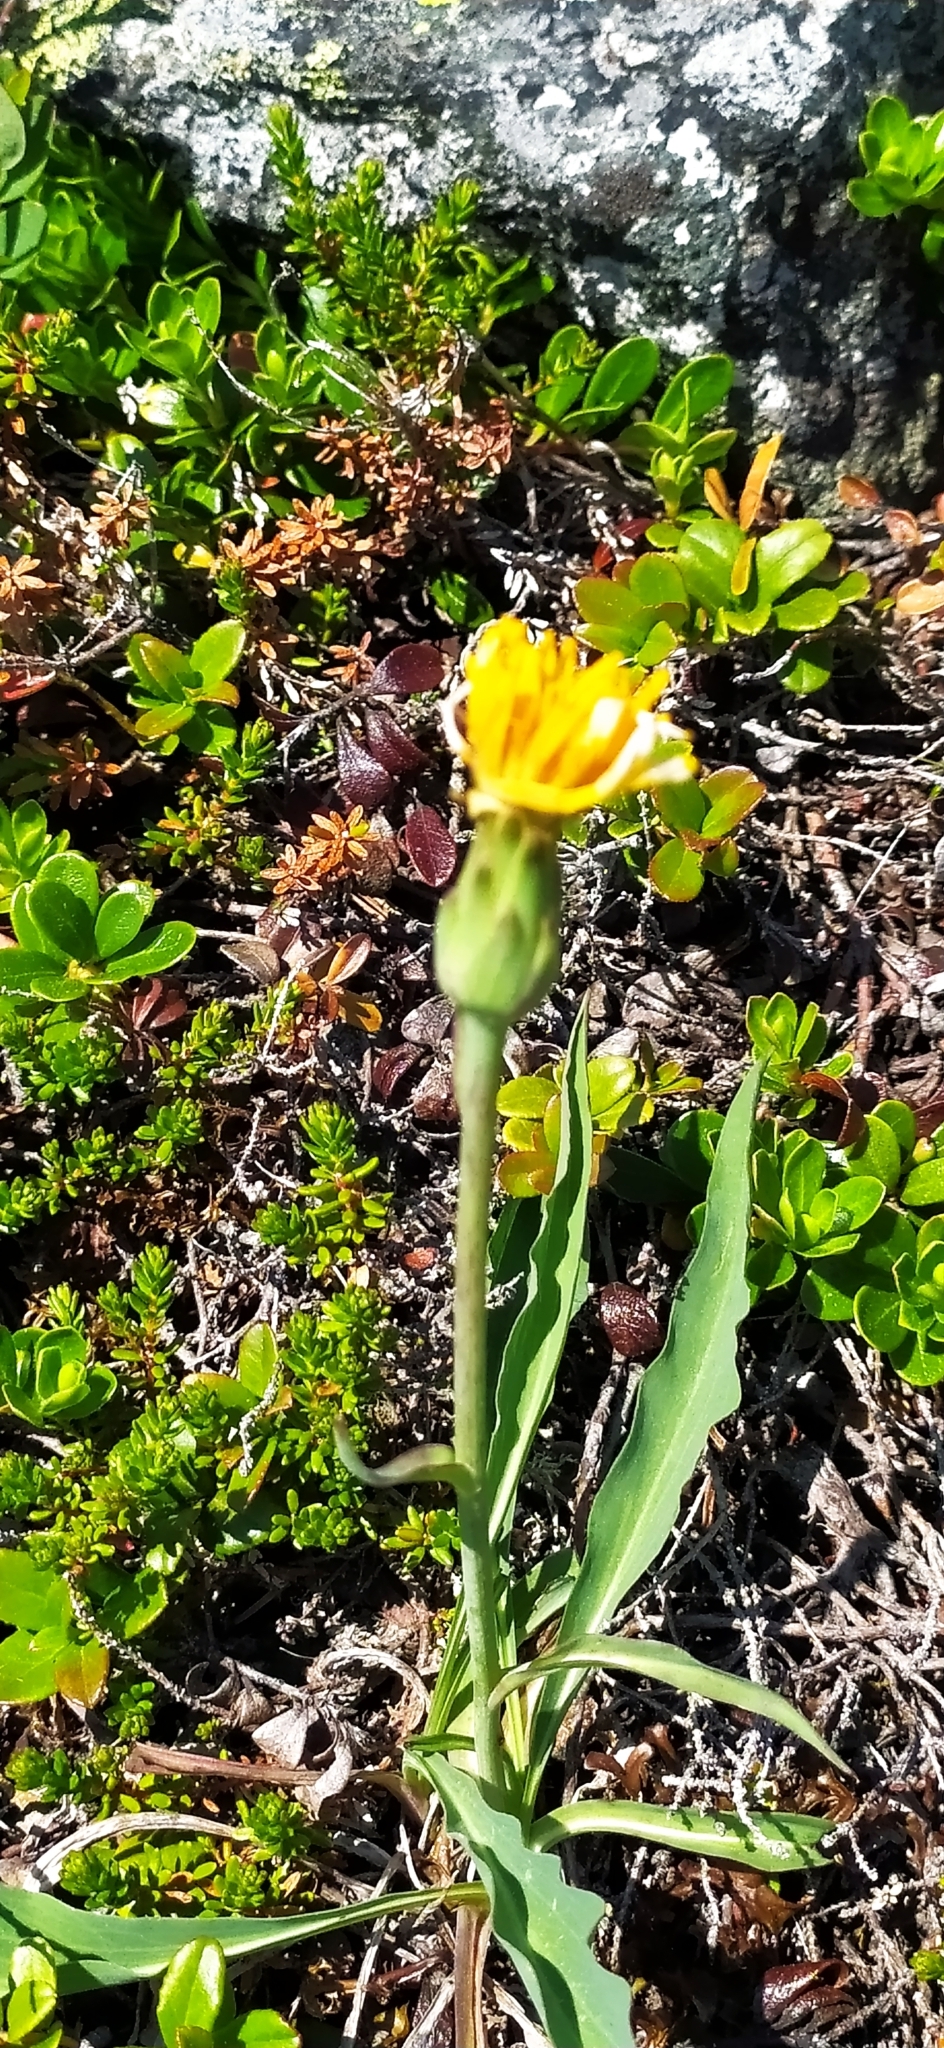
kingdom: Plantae
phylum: Tracheophyta
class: Magnoliopsida
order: Asterales
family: Asteraceae
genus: Scorzonera
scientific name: Scorzonera glabra
